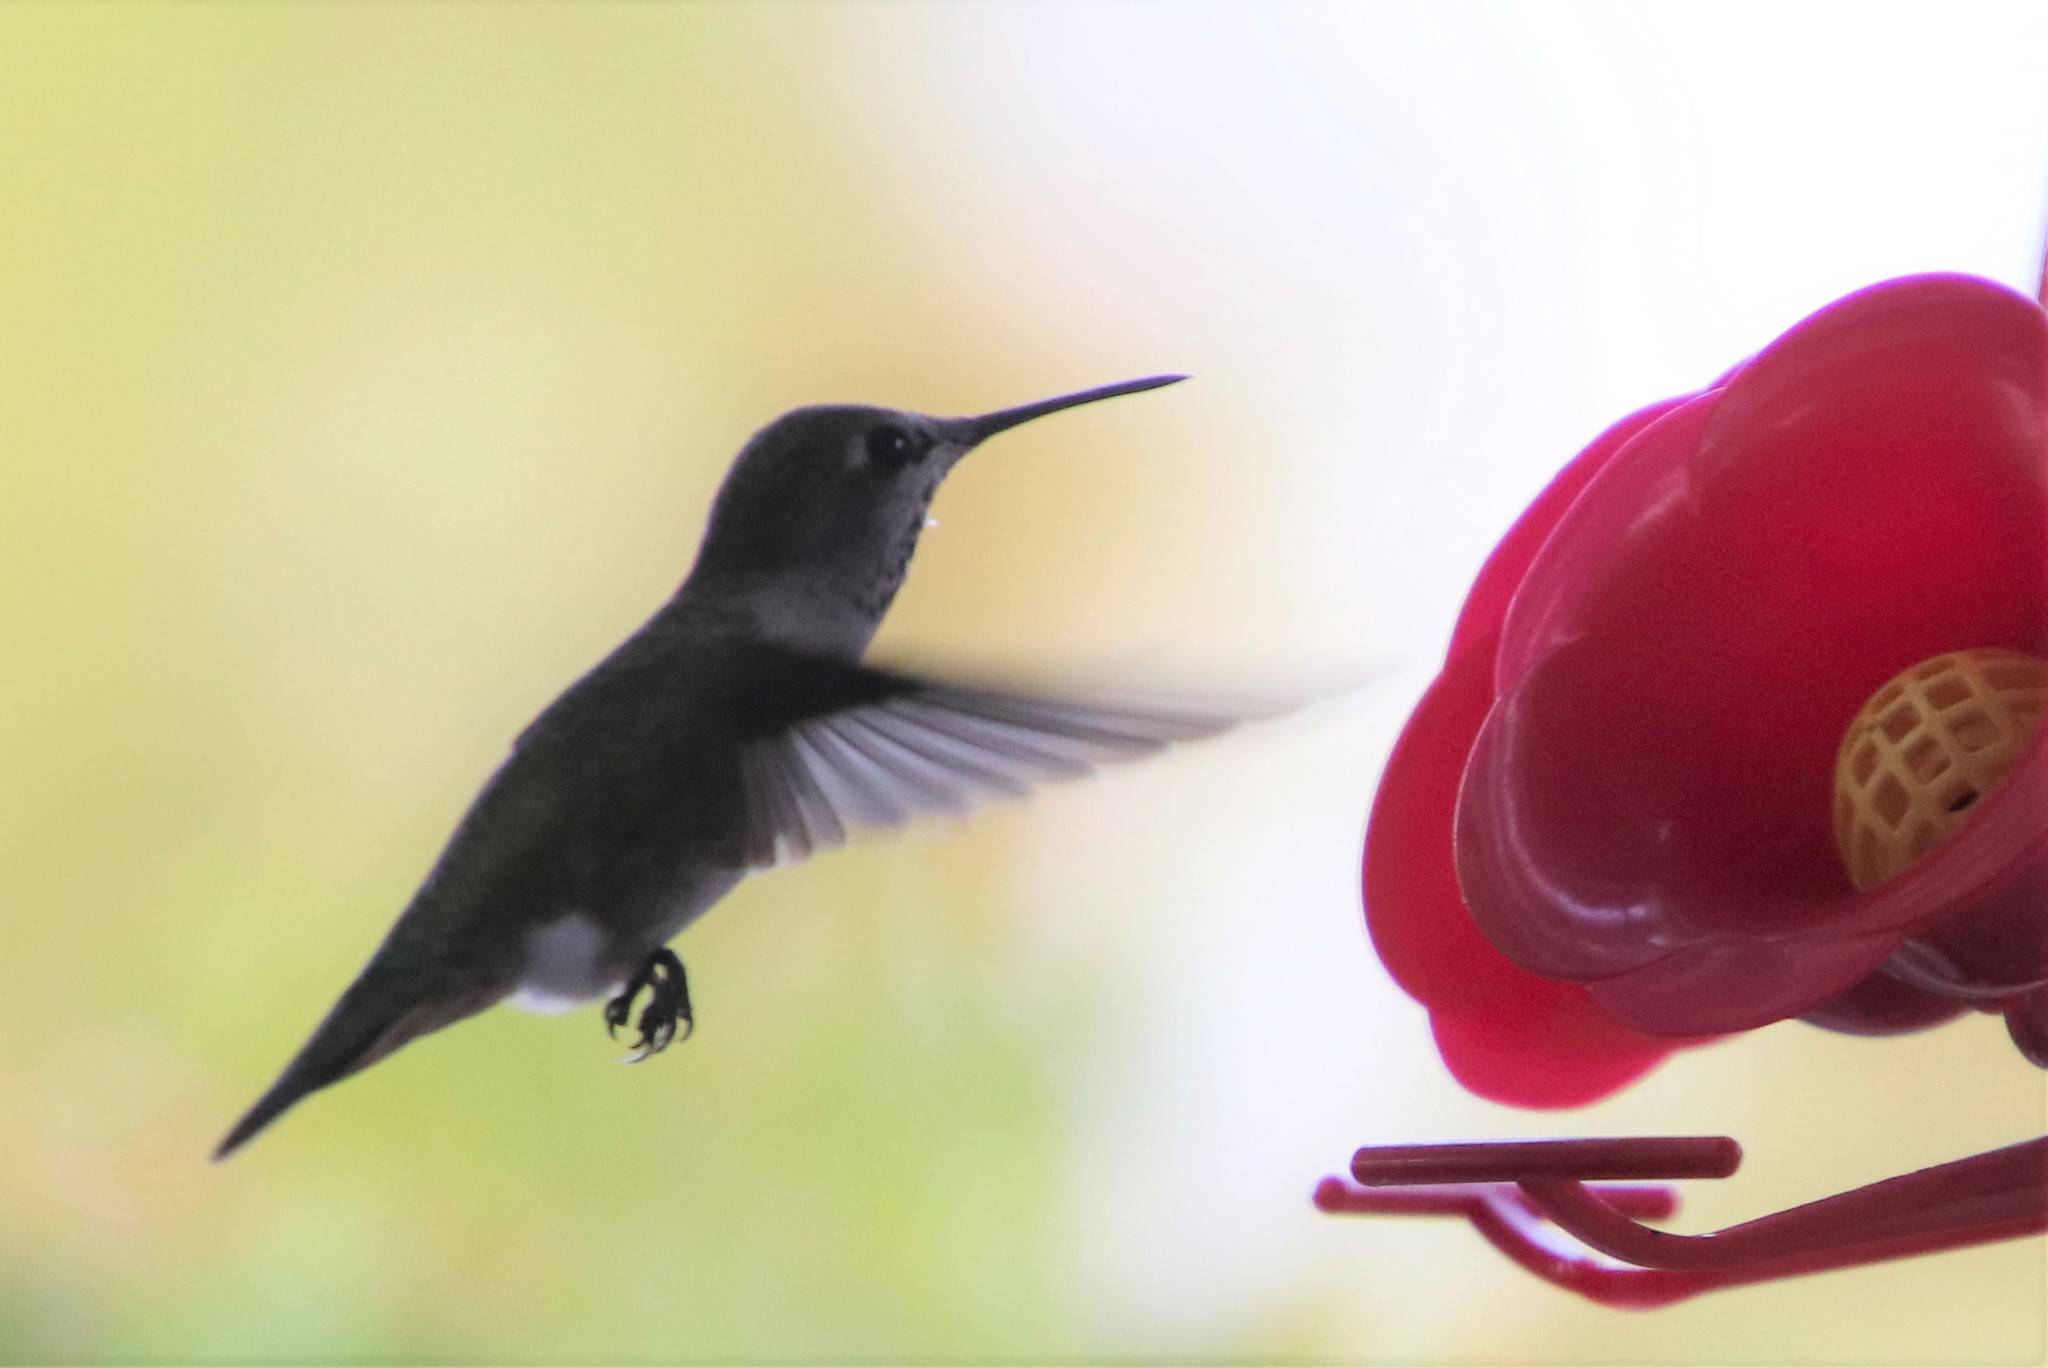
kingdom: Animalia
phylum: Chordata
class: Aves
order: Apodiformes
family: Trochilidae
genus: Calypte
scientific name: Calypte anna
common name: Anna's hummingbird
